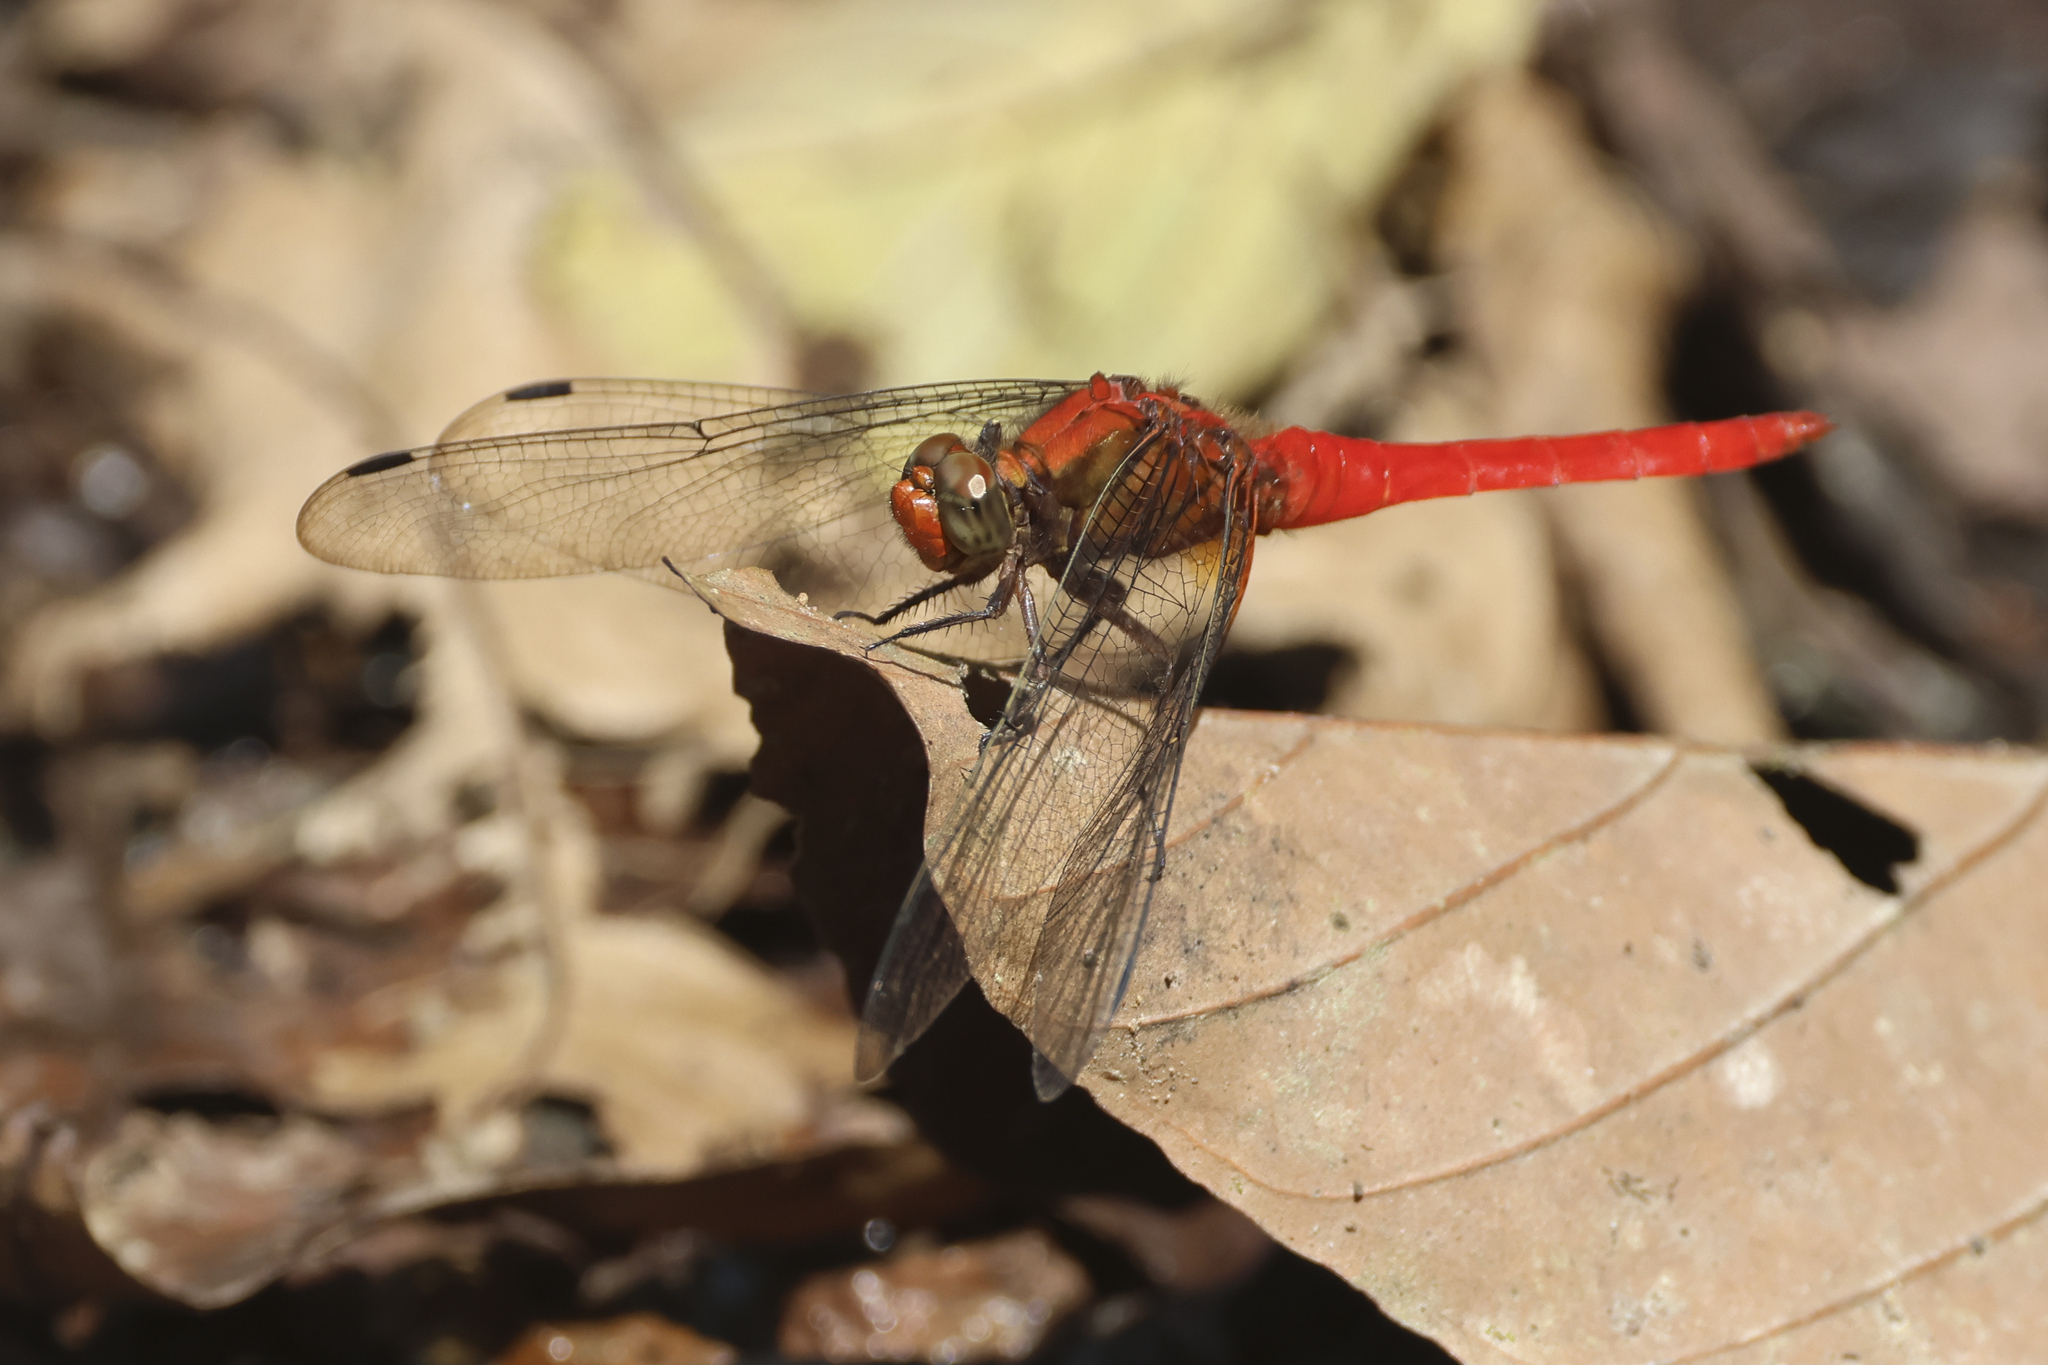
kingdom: Animalia
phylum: Arthropoda
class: Insecta
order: Odonata
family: Libellulidae
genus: Orthetrum
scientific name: Orthetrum testaceum
